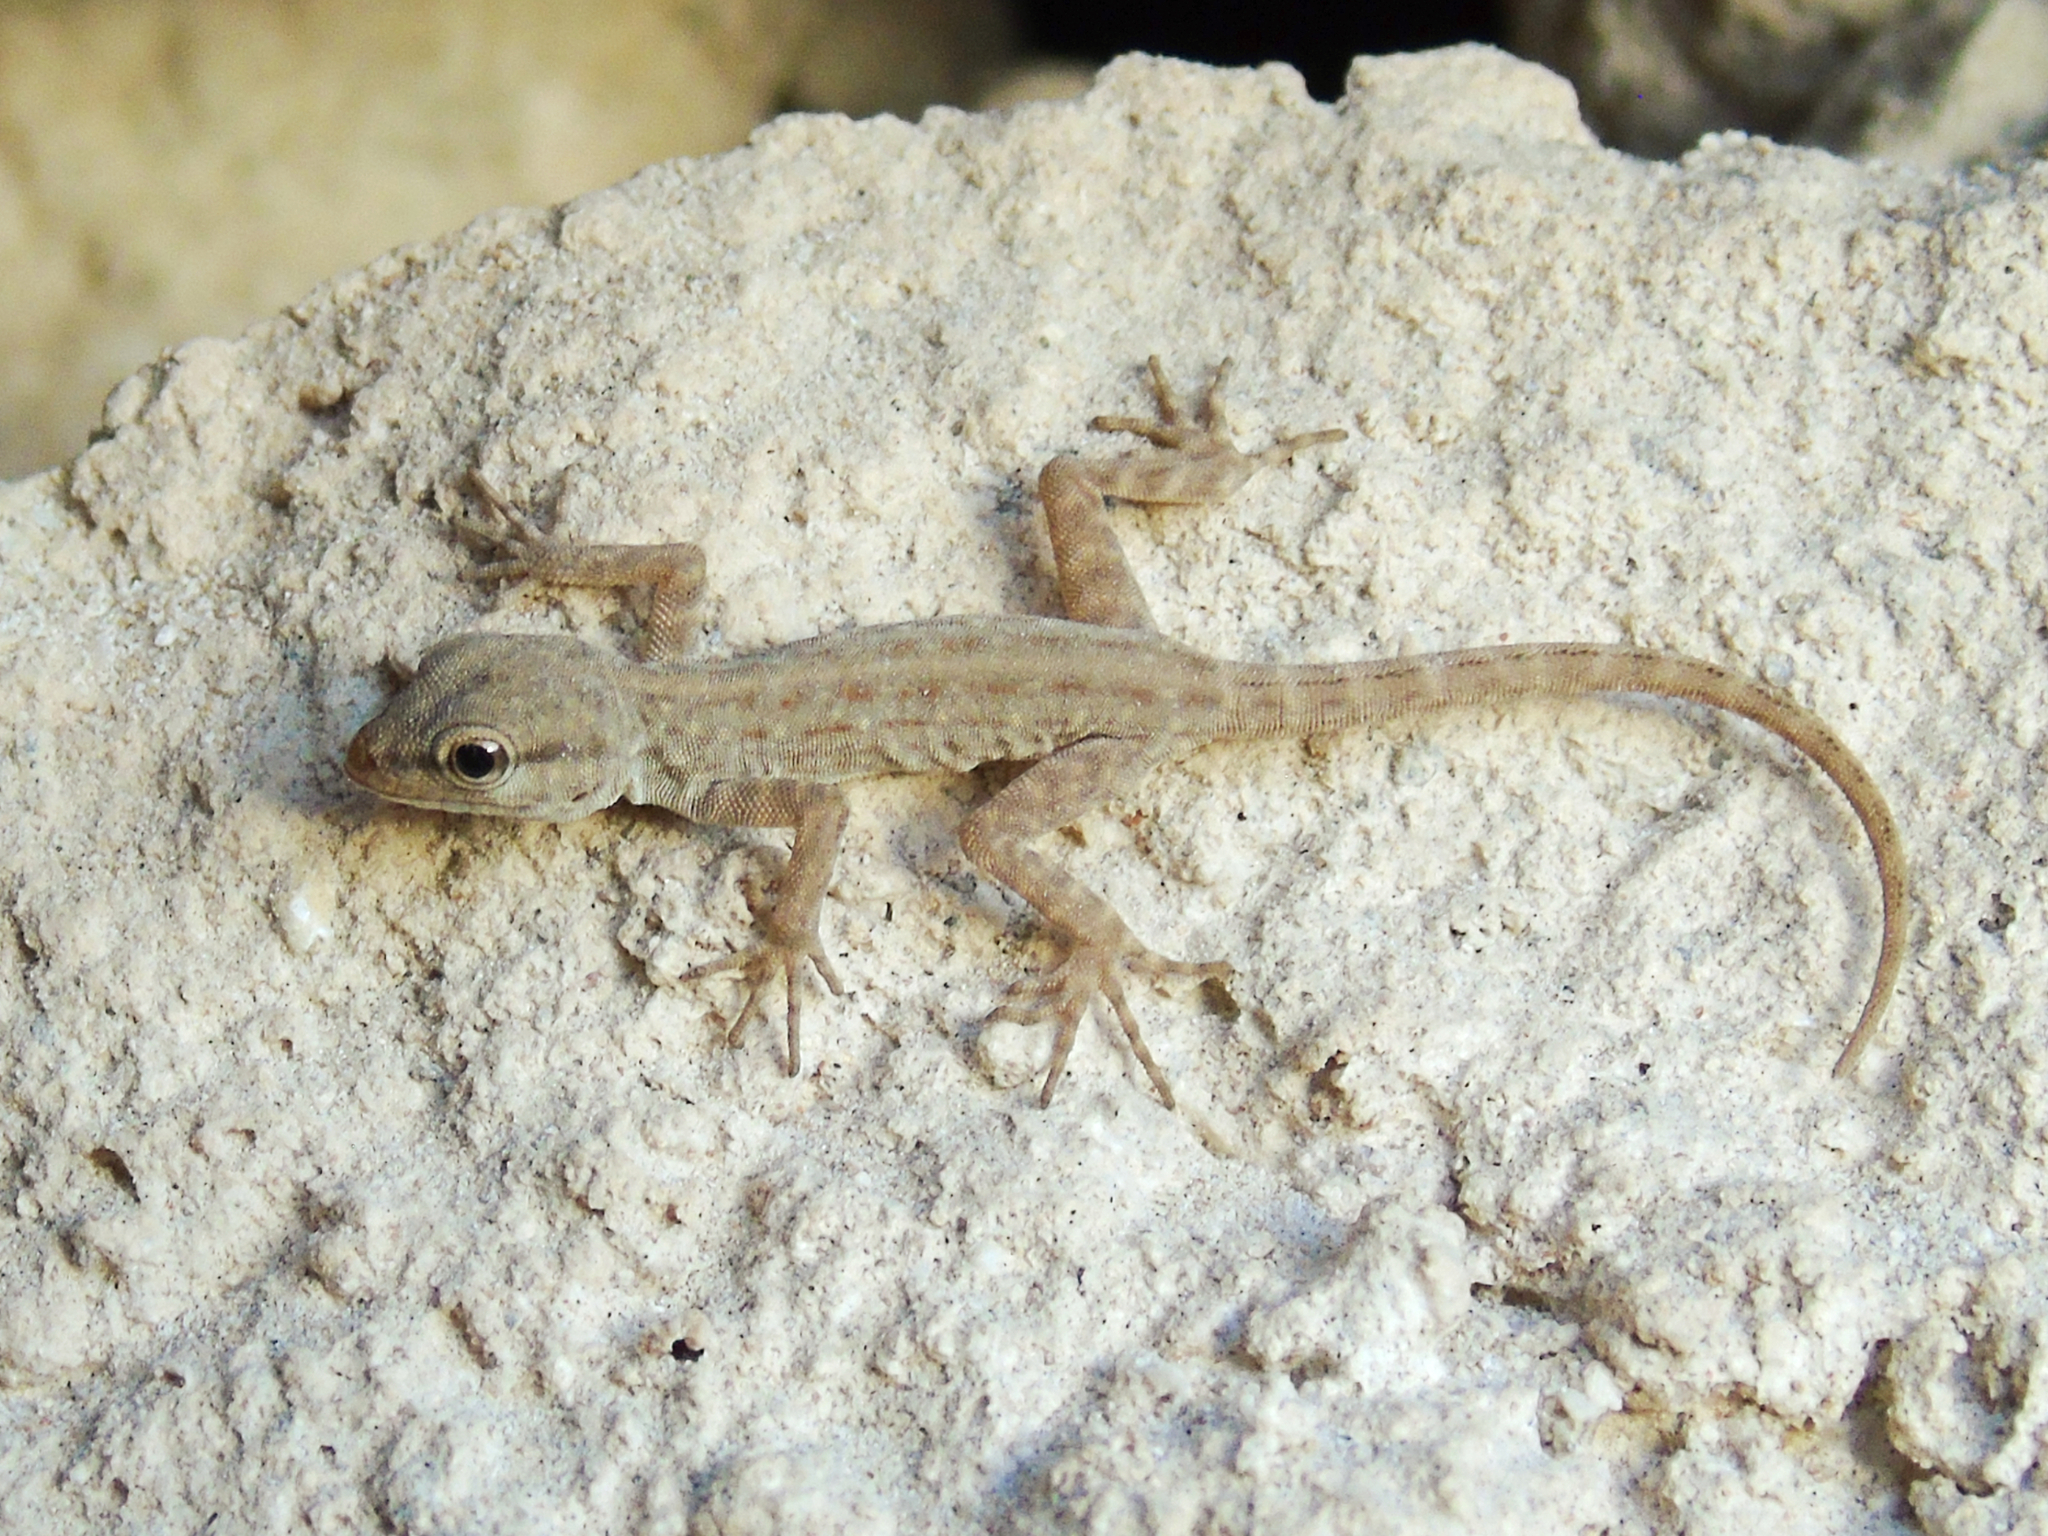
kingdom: Animalia
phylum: Chordata
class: Squamata
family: Sphaerodactylidae
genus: Pristurus
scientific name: Pristurus rupestris
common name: Blanford’s semaphore gecko
